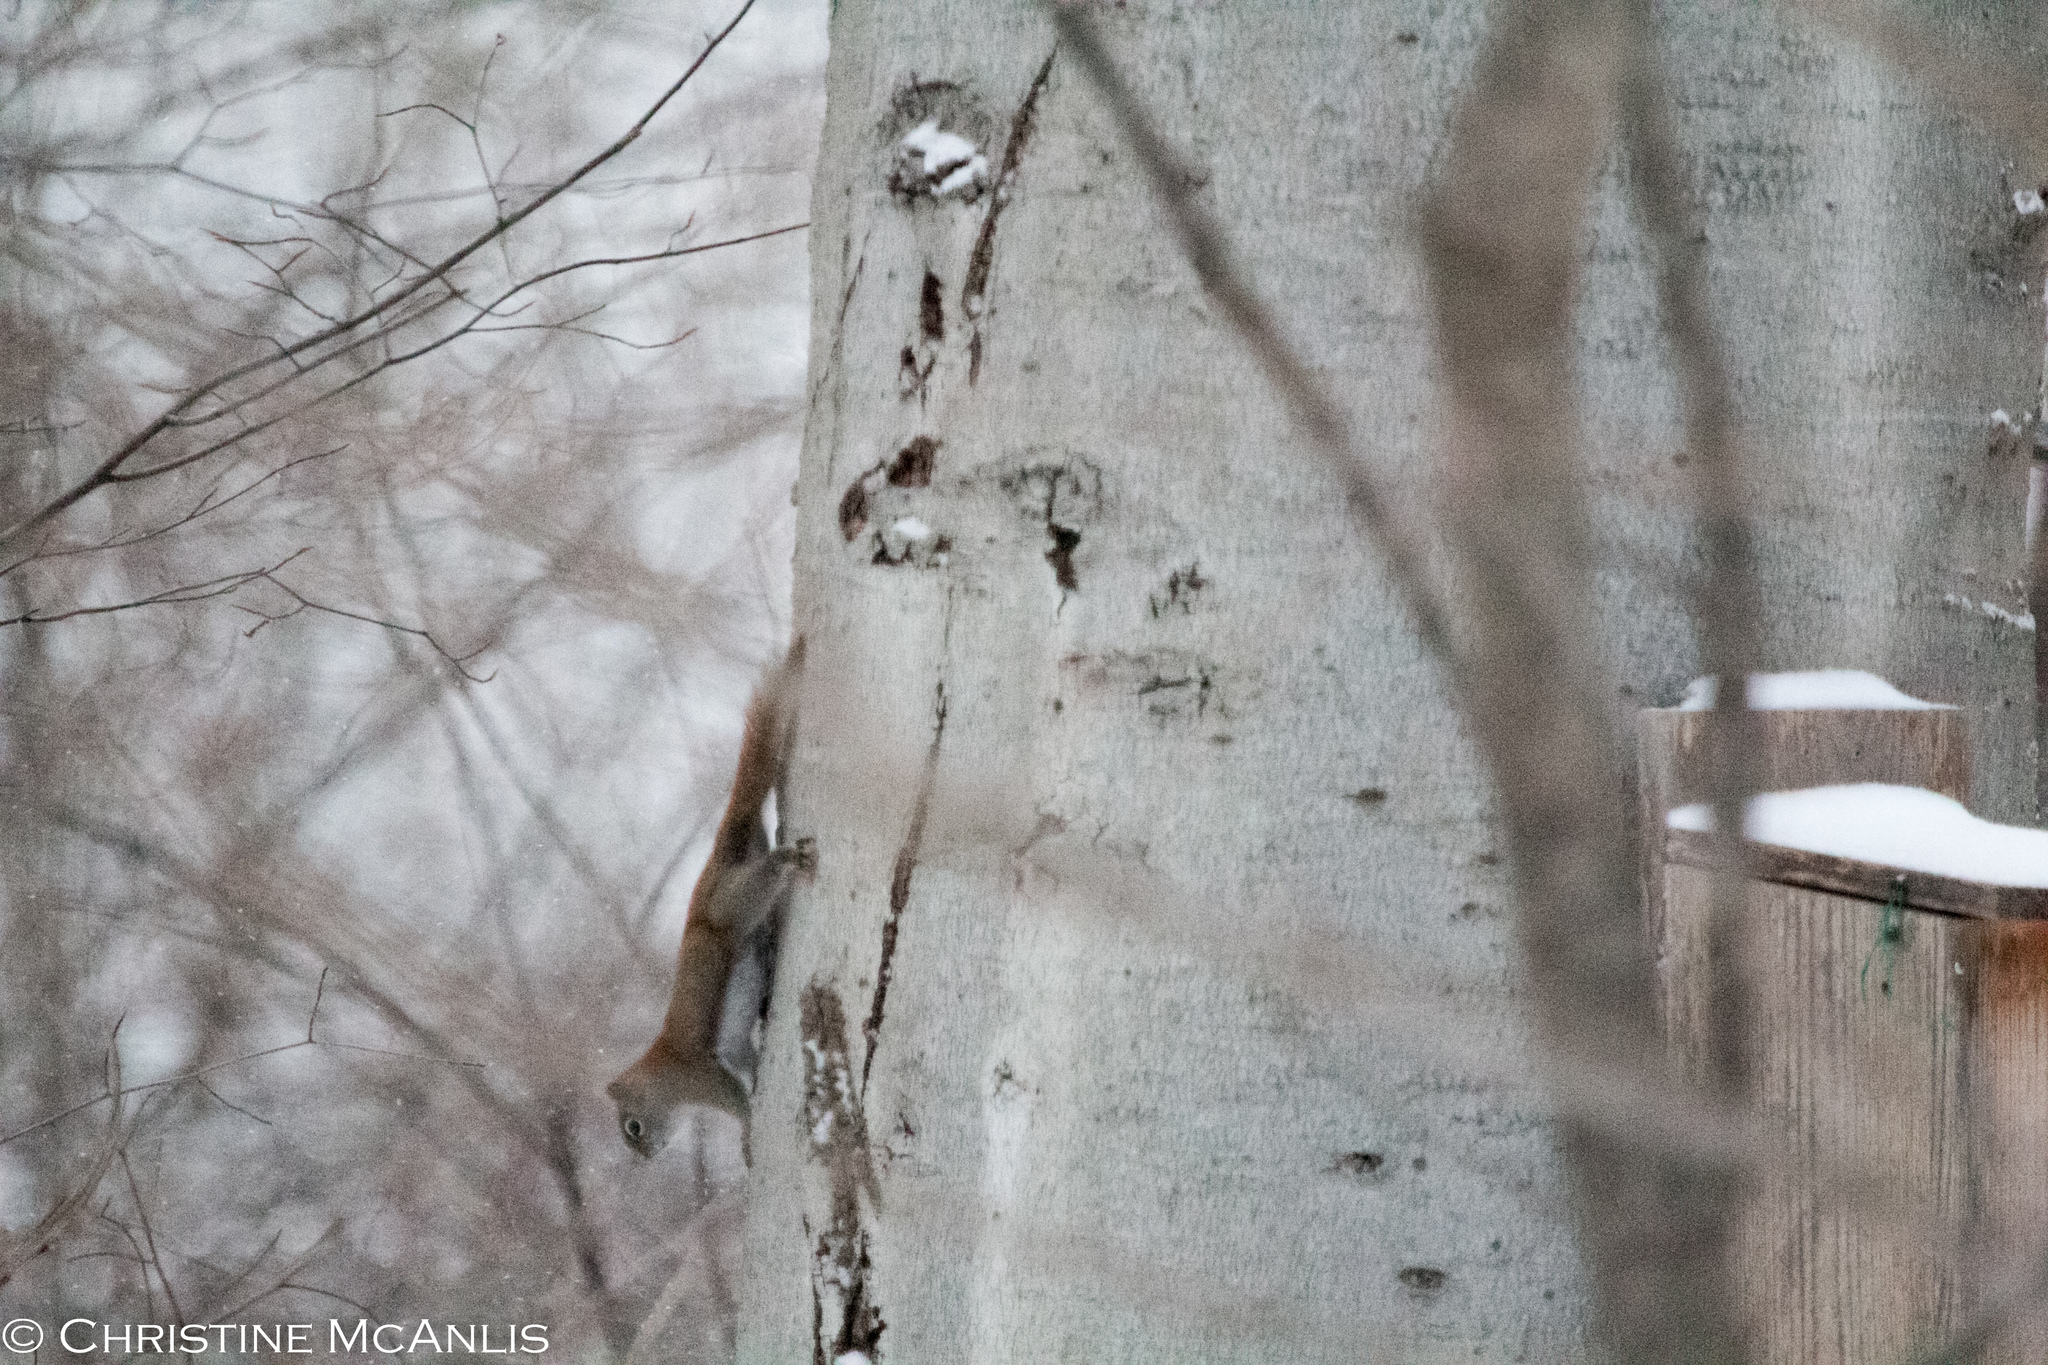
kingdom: Animalia
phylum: Chordata
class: Mammalia
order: Rodentia
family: Sciuridae
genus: Tamiasciurus
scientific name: Tamiasciurus hudsonicus
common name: Red squirrel
